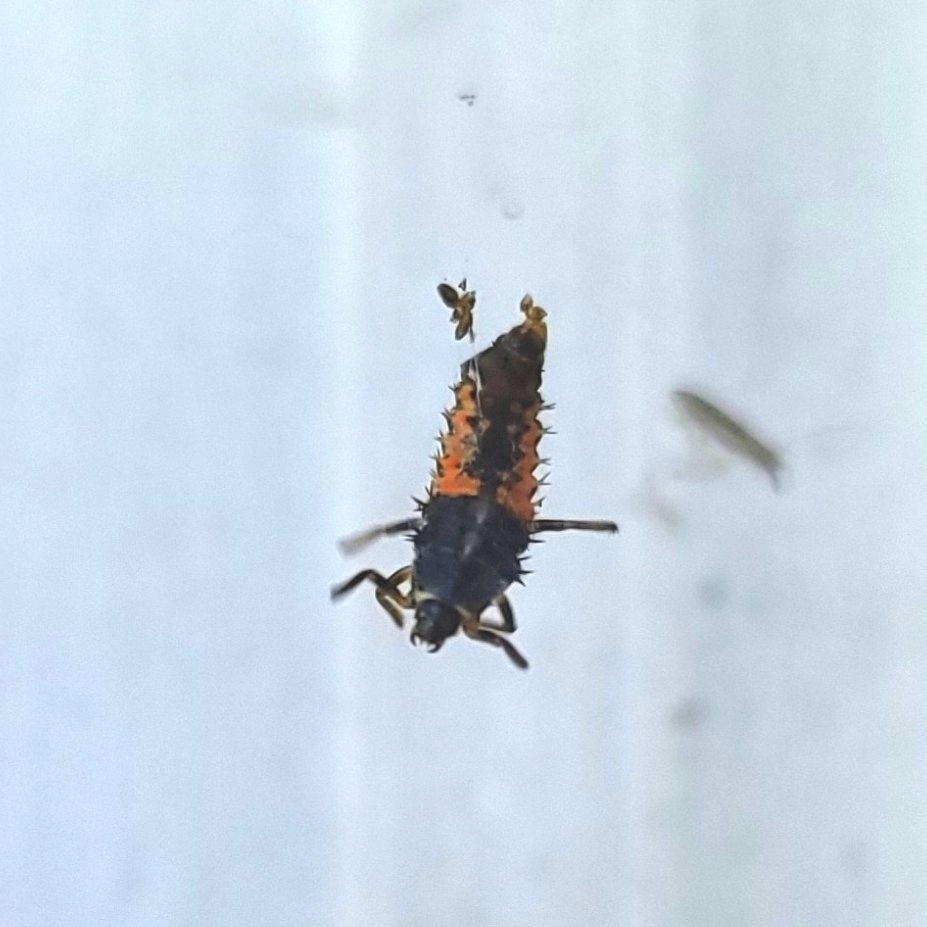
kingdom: Animalia
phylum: Arthropoda
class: Insecta
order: Coleoptera
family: Coccinellidae
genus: Harmonia
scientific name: Harmonia axyridis
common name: Harlequin ladybird
